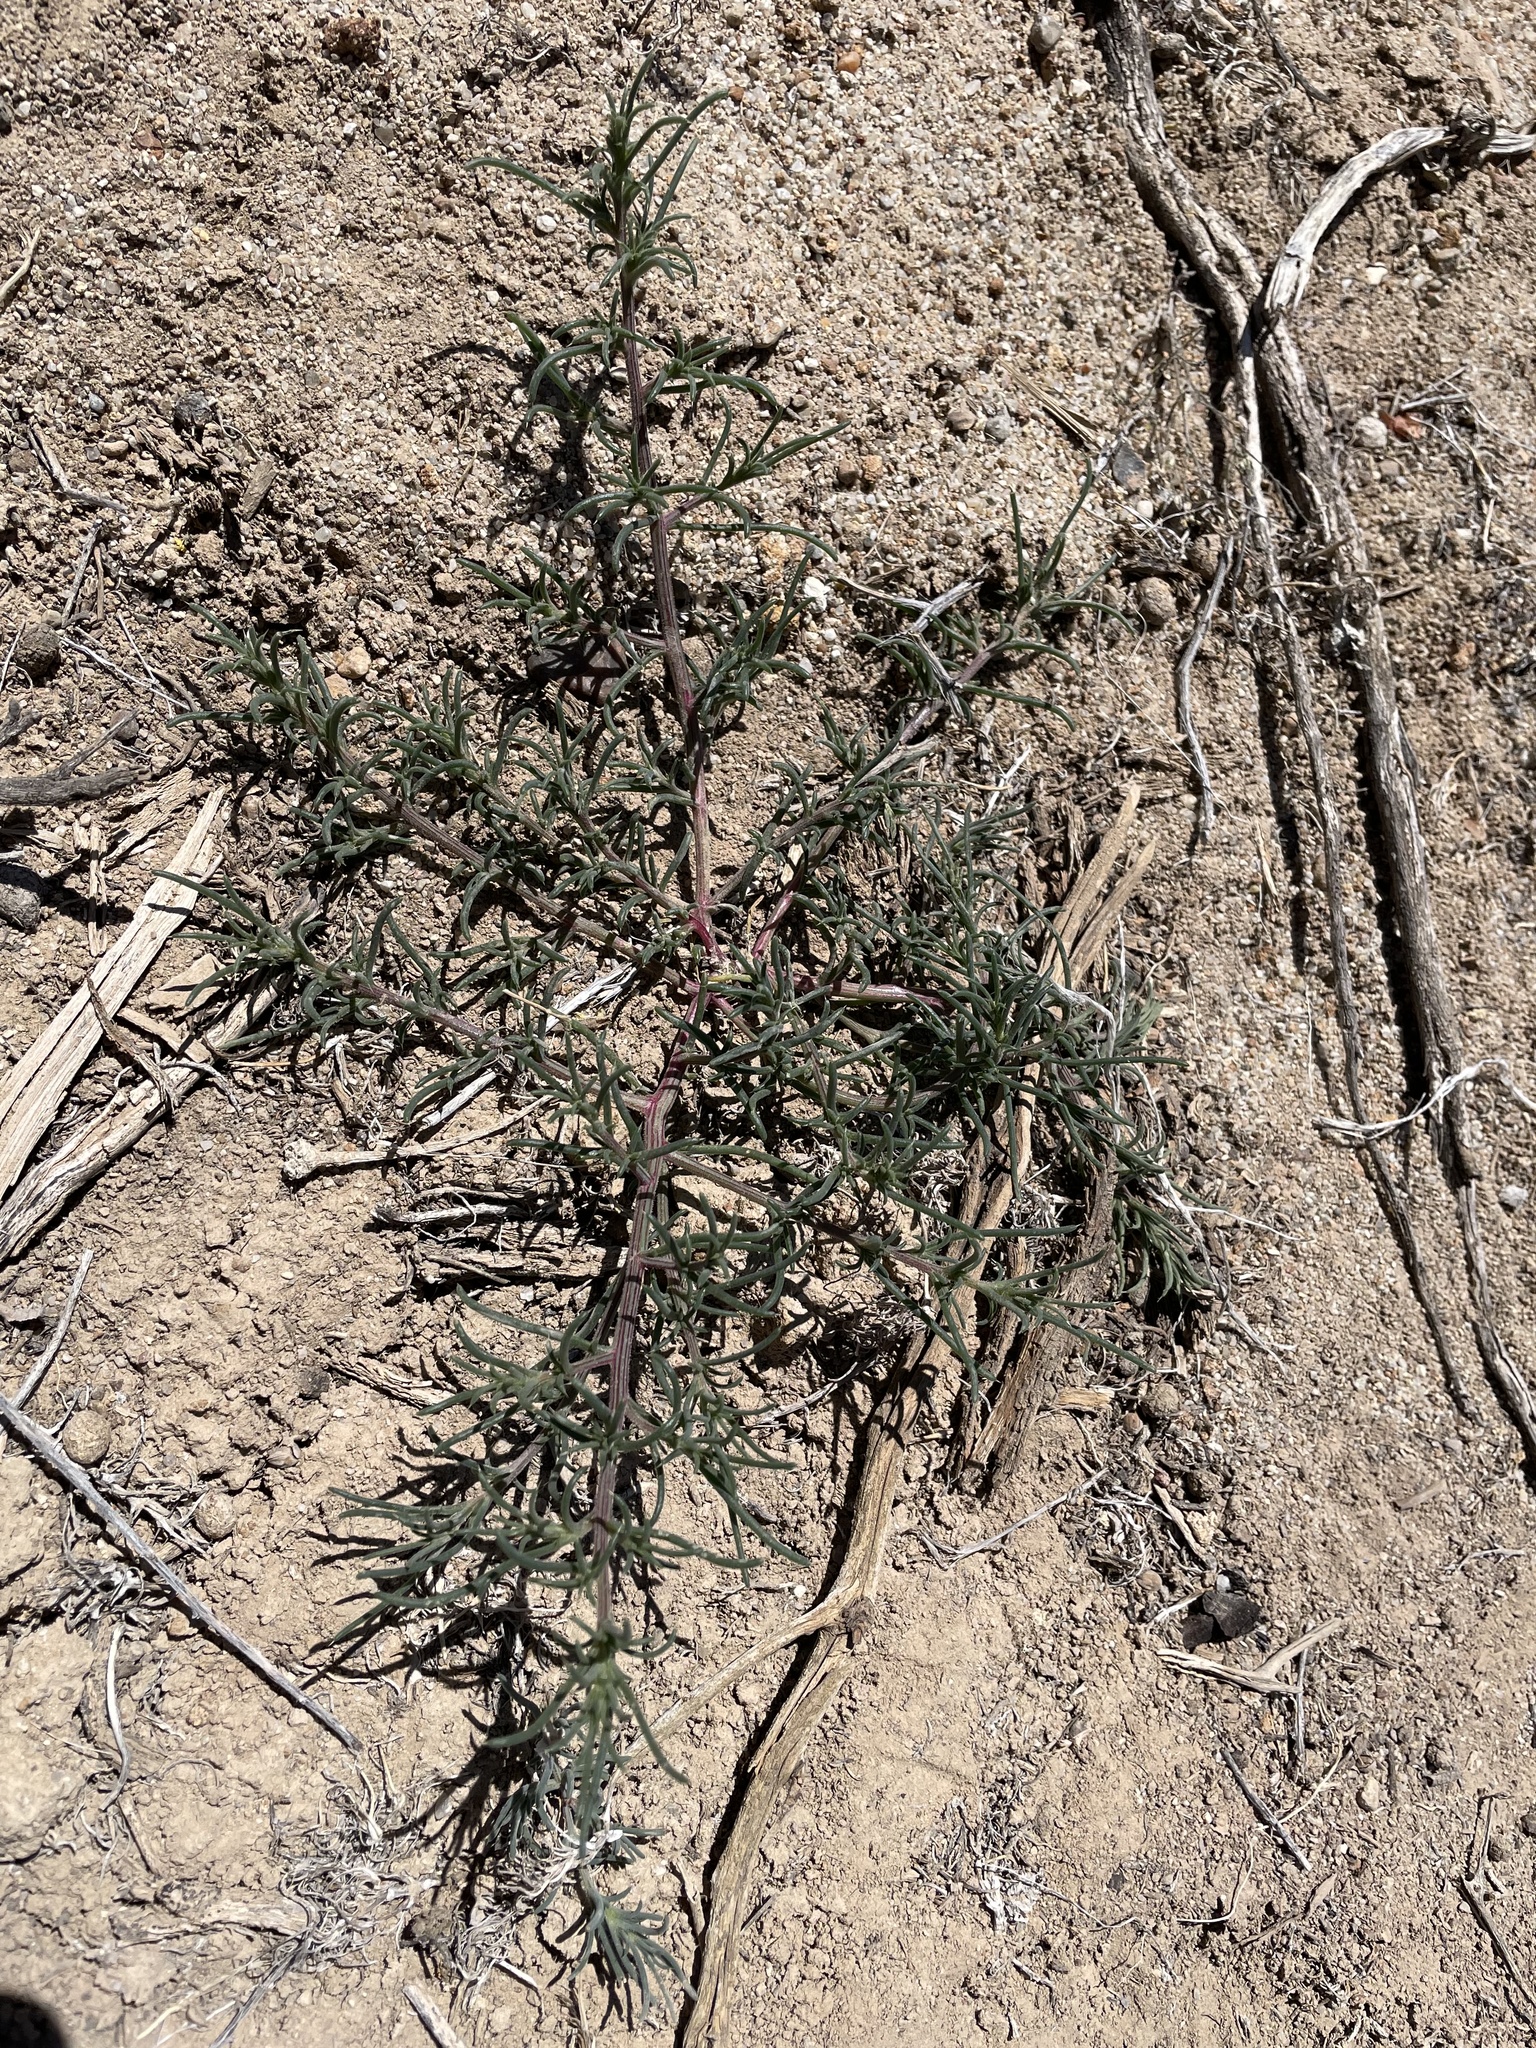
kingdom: Plantae
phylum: Tracheophyta
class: Magnoliopsida
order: Caryophyllales
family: Amaranthaceae
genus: Salsola
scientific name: Salsola tragus
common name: Prickly russian thistle
